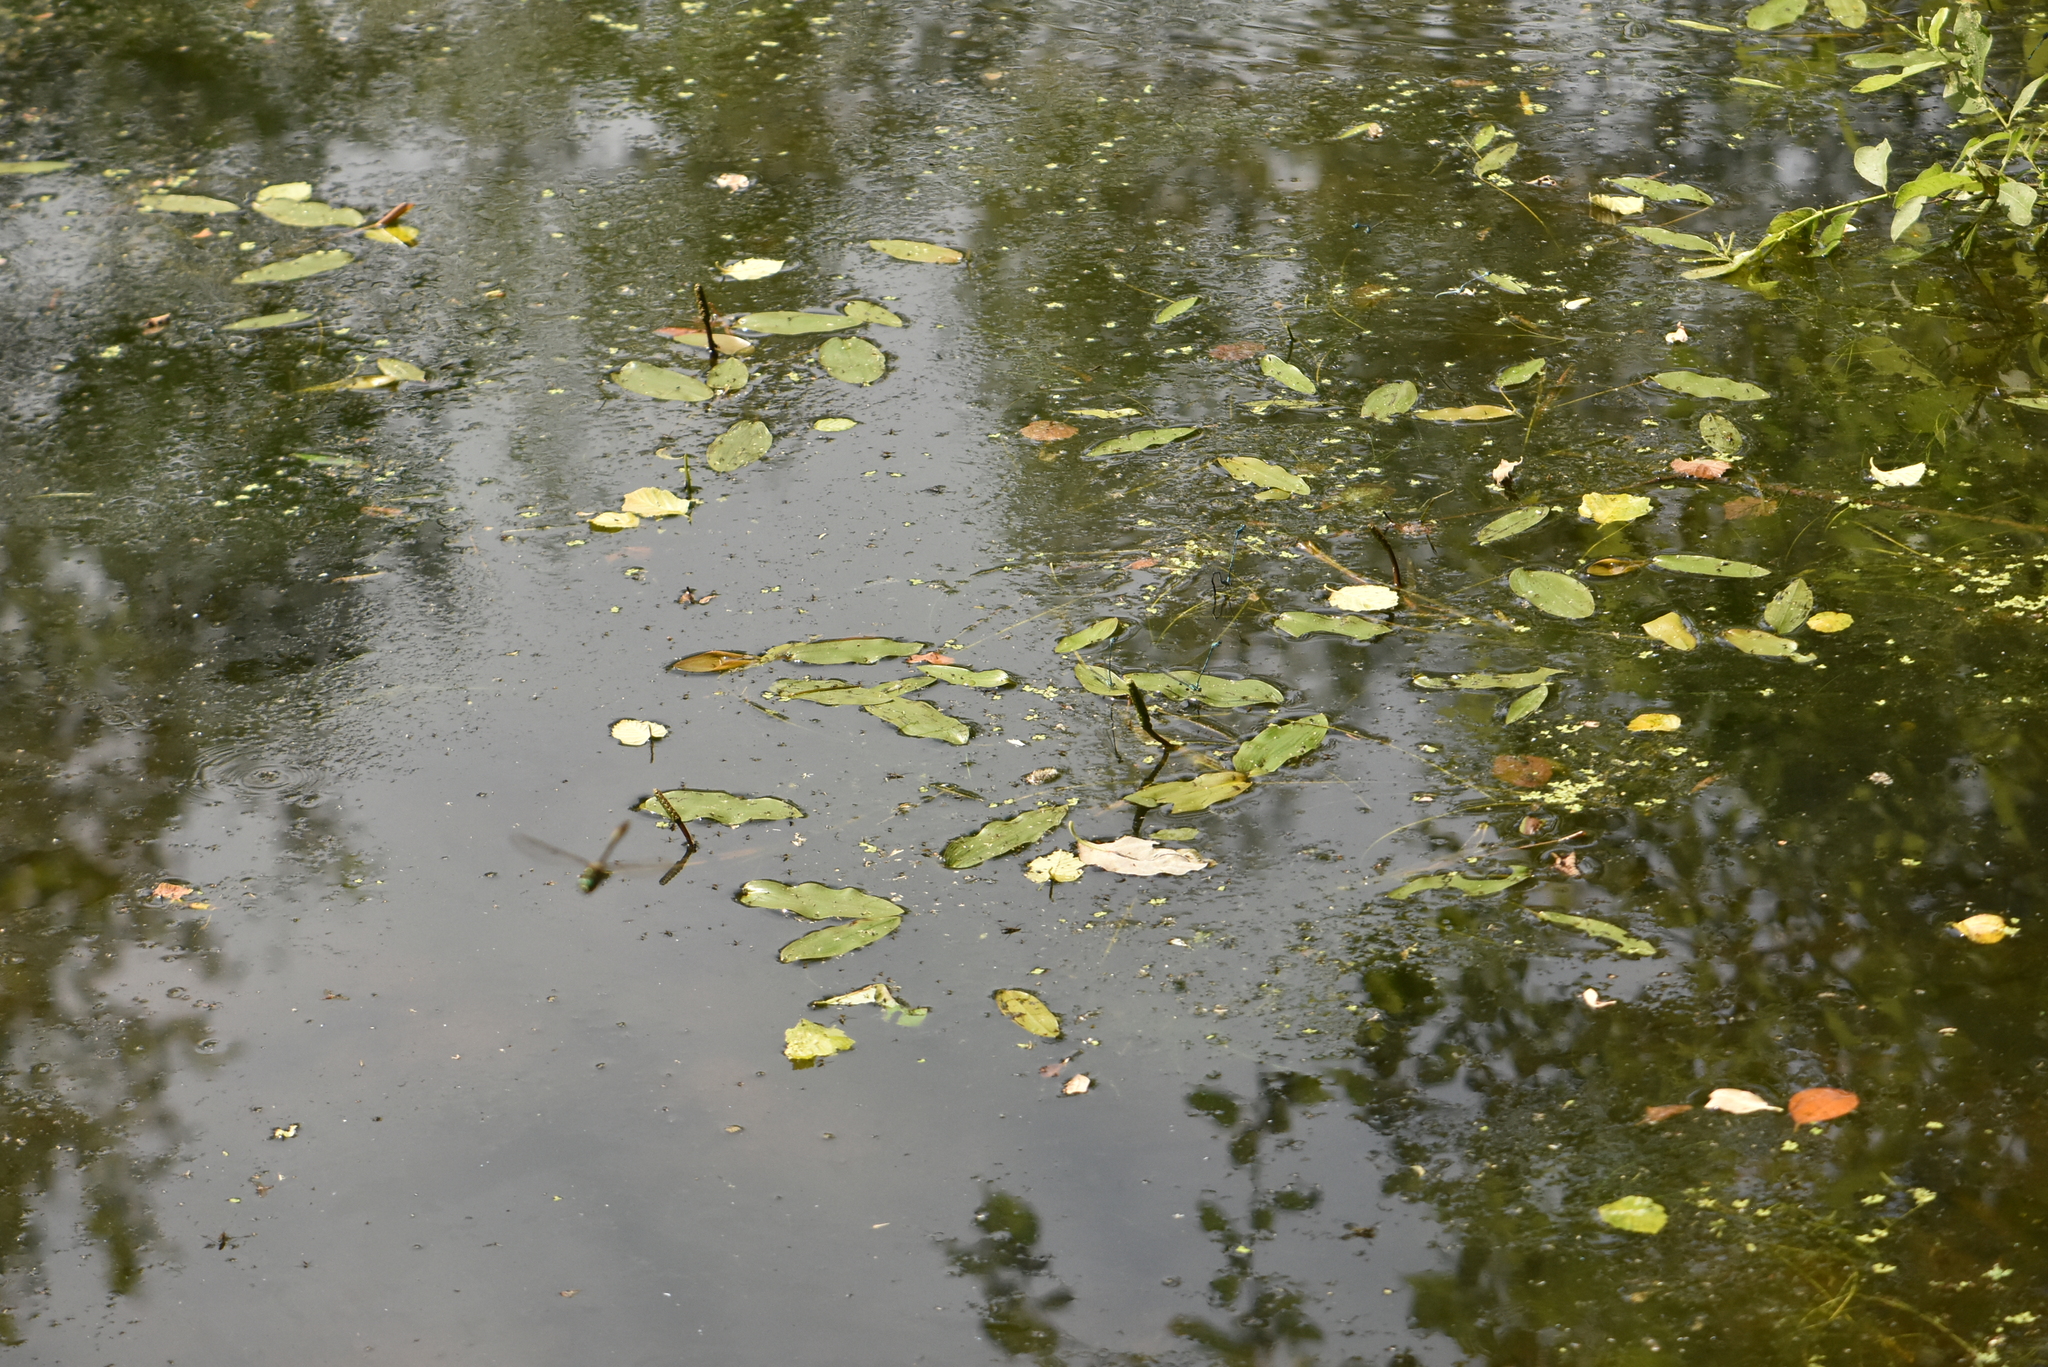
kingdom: Plantae
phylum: Tracheophyta
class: Liliopsida
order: Alismatales
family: Potamogetonaceae
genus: Potamogeton
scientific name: Potamogeton natans
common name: Broad-leaved pondweed
